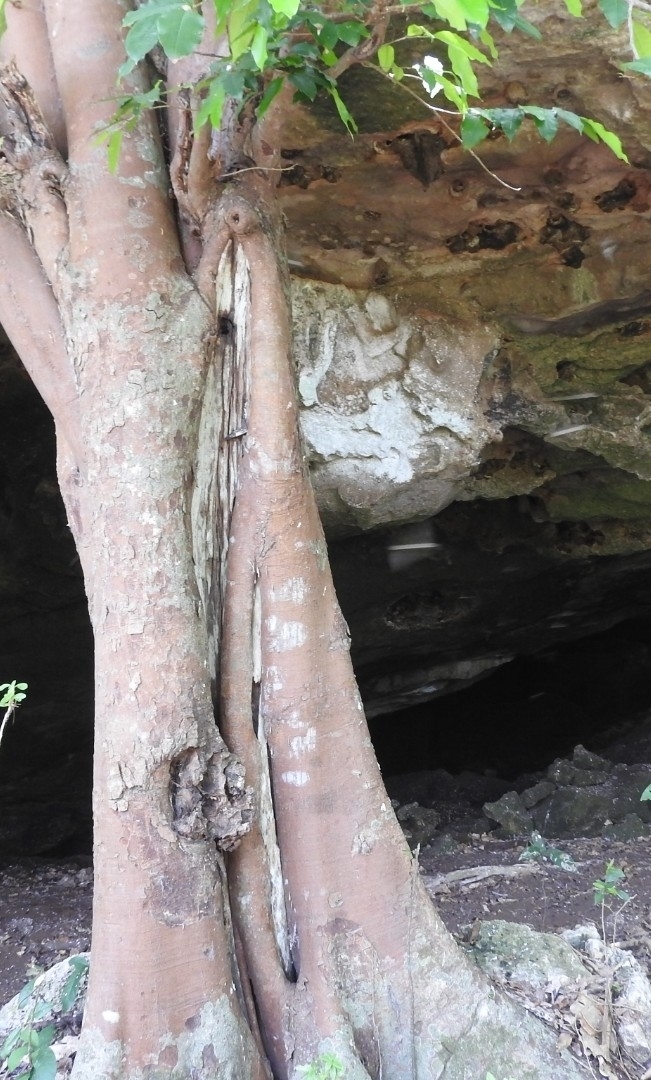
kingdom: Plantae
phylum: Tracheophyta
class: Magnoliopsida
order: Rosales
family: Moraceae
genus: Brosimum
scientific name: Brosimum alicastrum
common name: Breadnut
